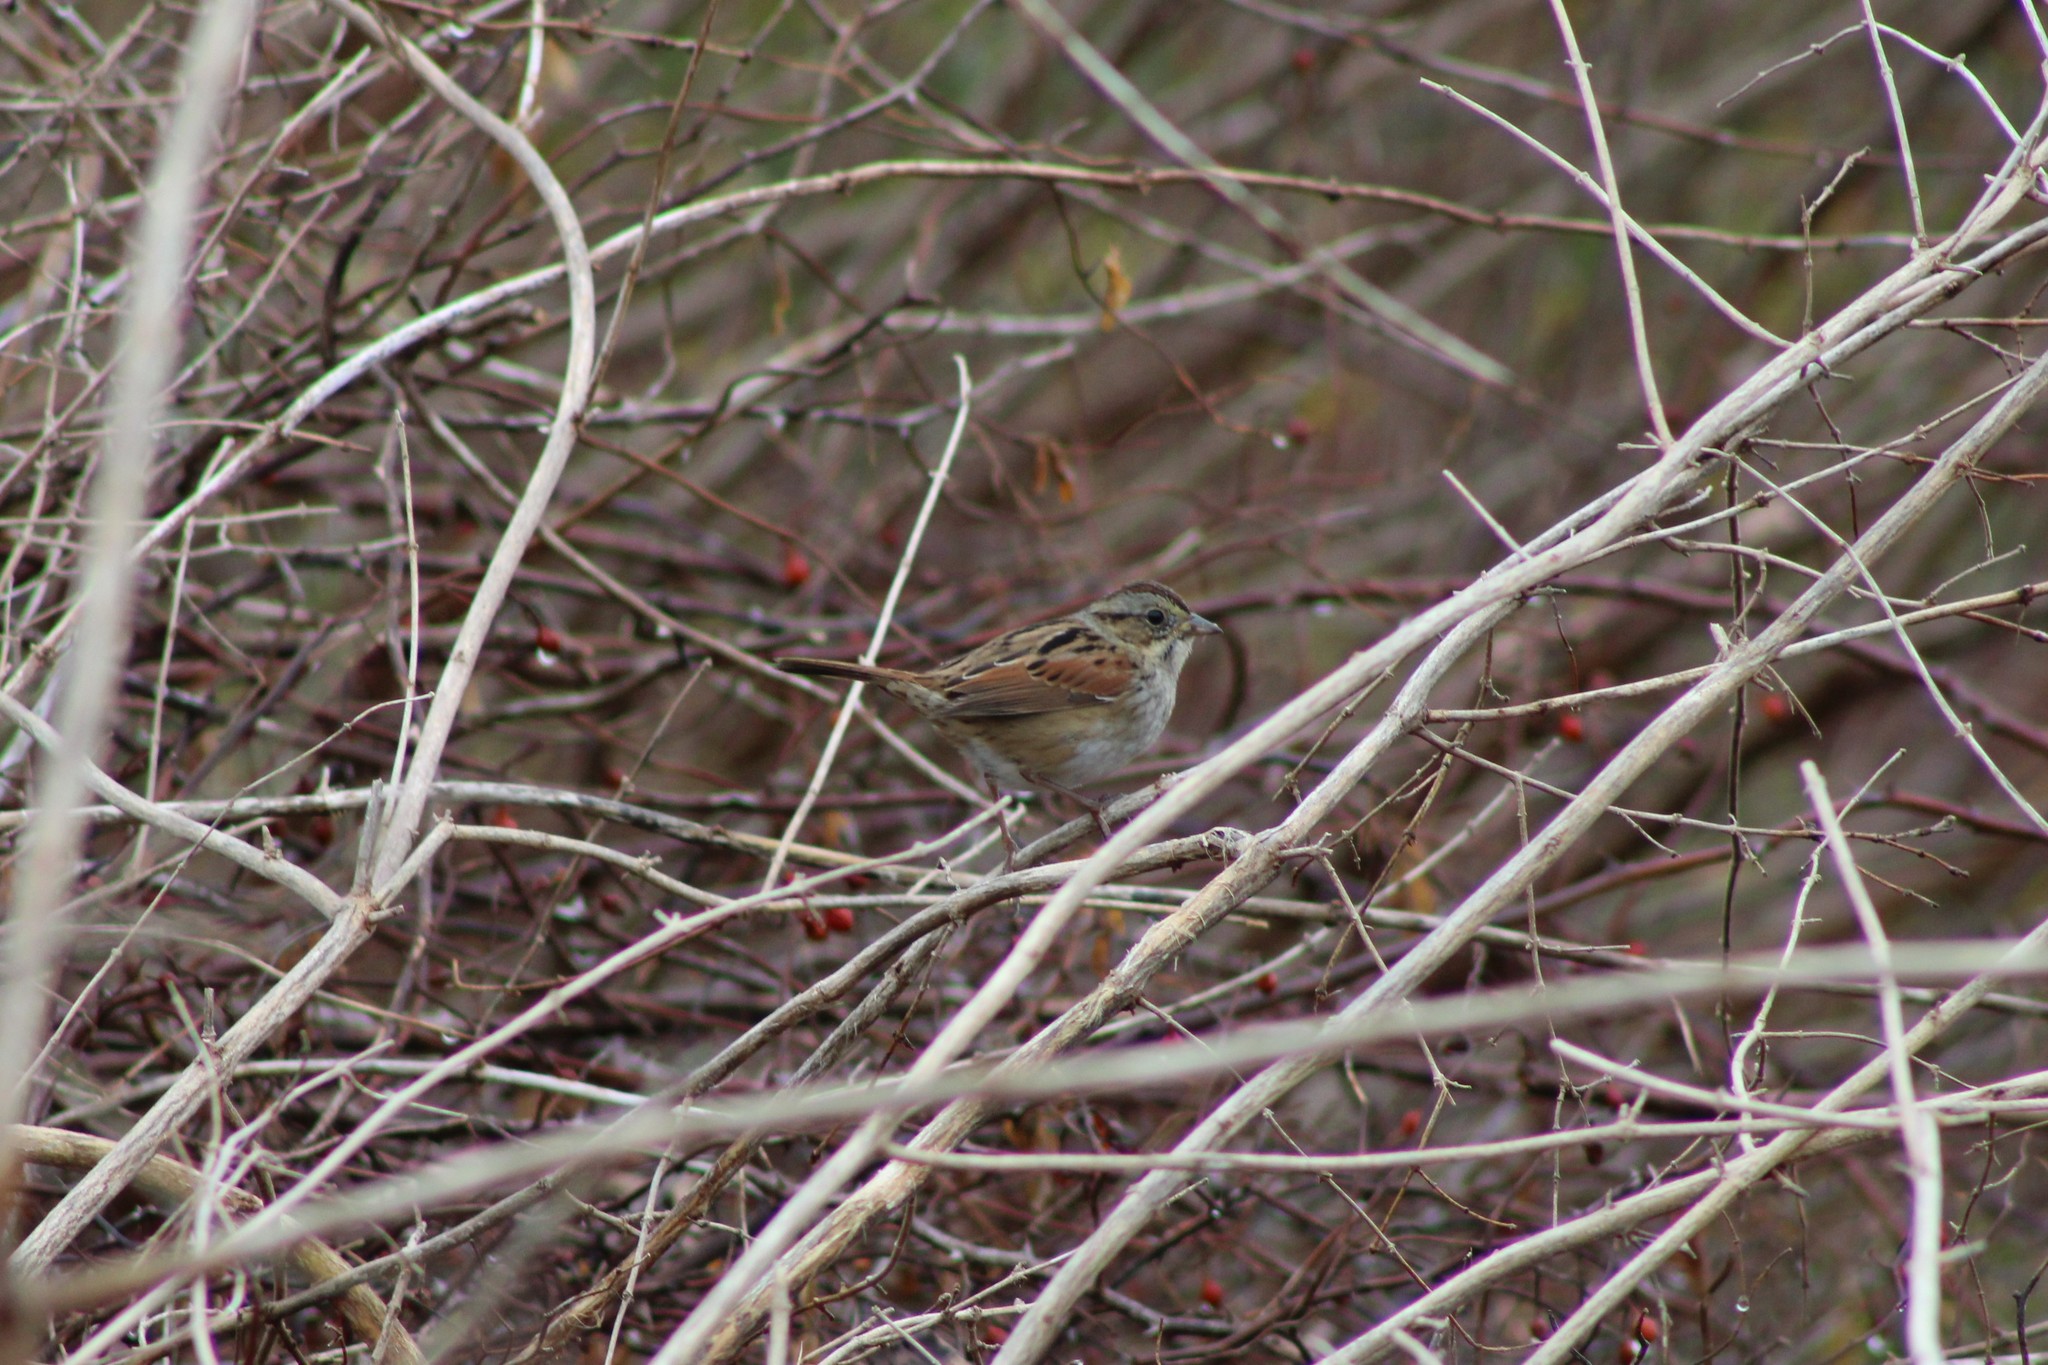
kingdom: Animalia
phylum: Chordata
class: Aves
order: Passeriformes
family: Passerellidae
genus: Melospiza
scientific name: Melospiza georgiana
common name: Swamp sparrow
